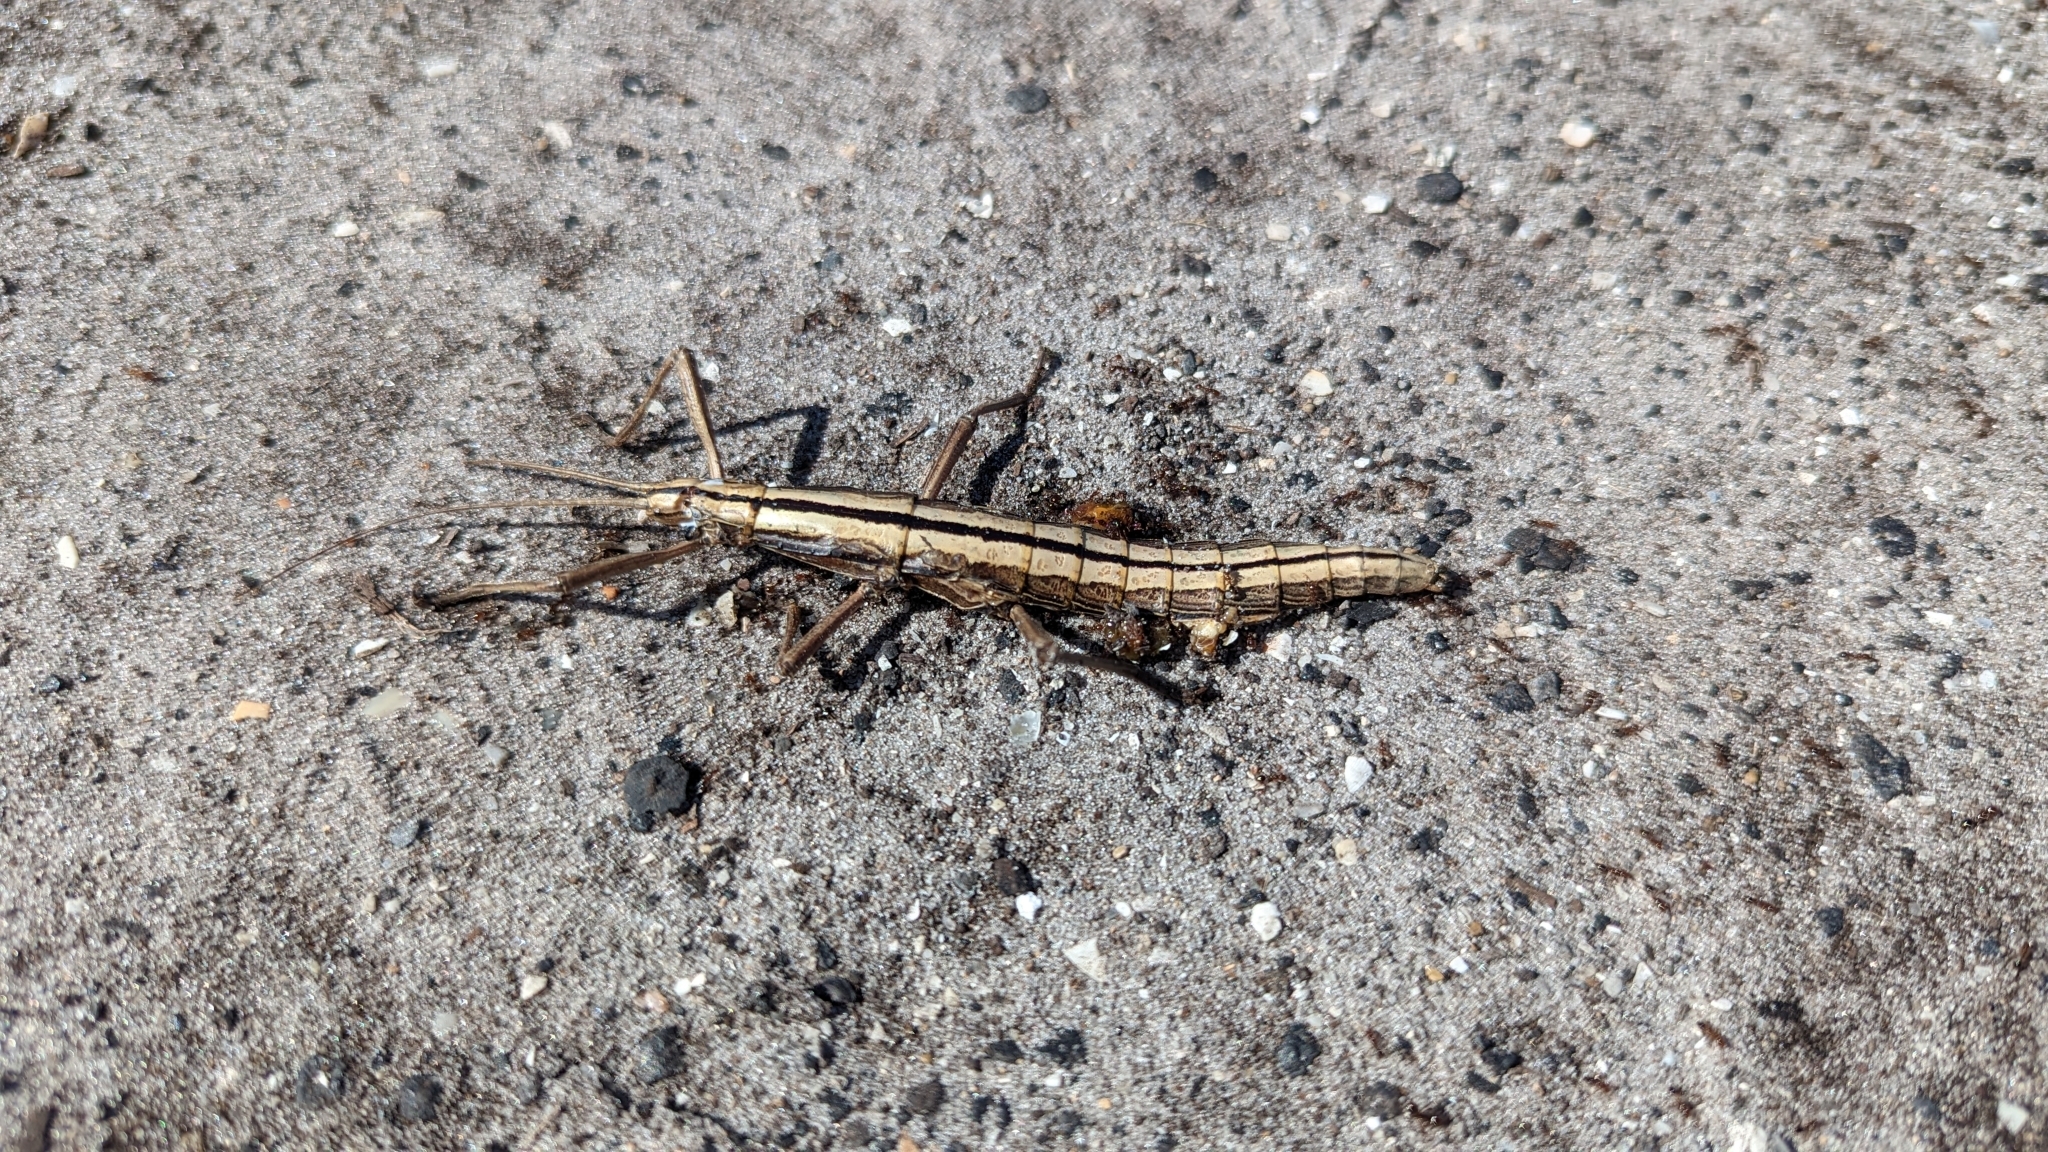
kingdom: Animalia
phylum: Arthropoda
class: Insecta
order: Phasmida
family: Pseudophasmatidae
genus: Anisomorpha
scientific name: Anisomorpha buprestoides
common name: Florida stick insect
